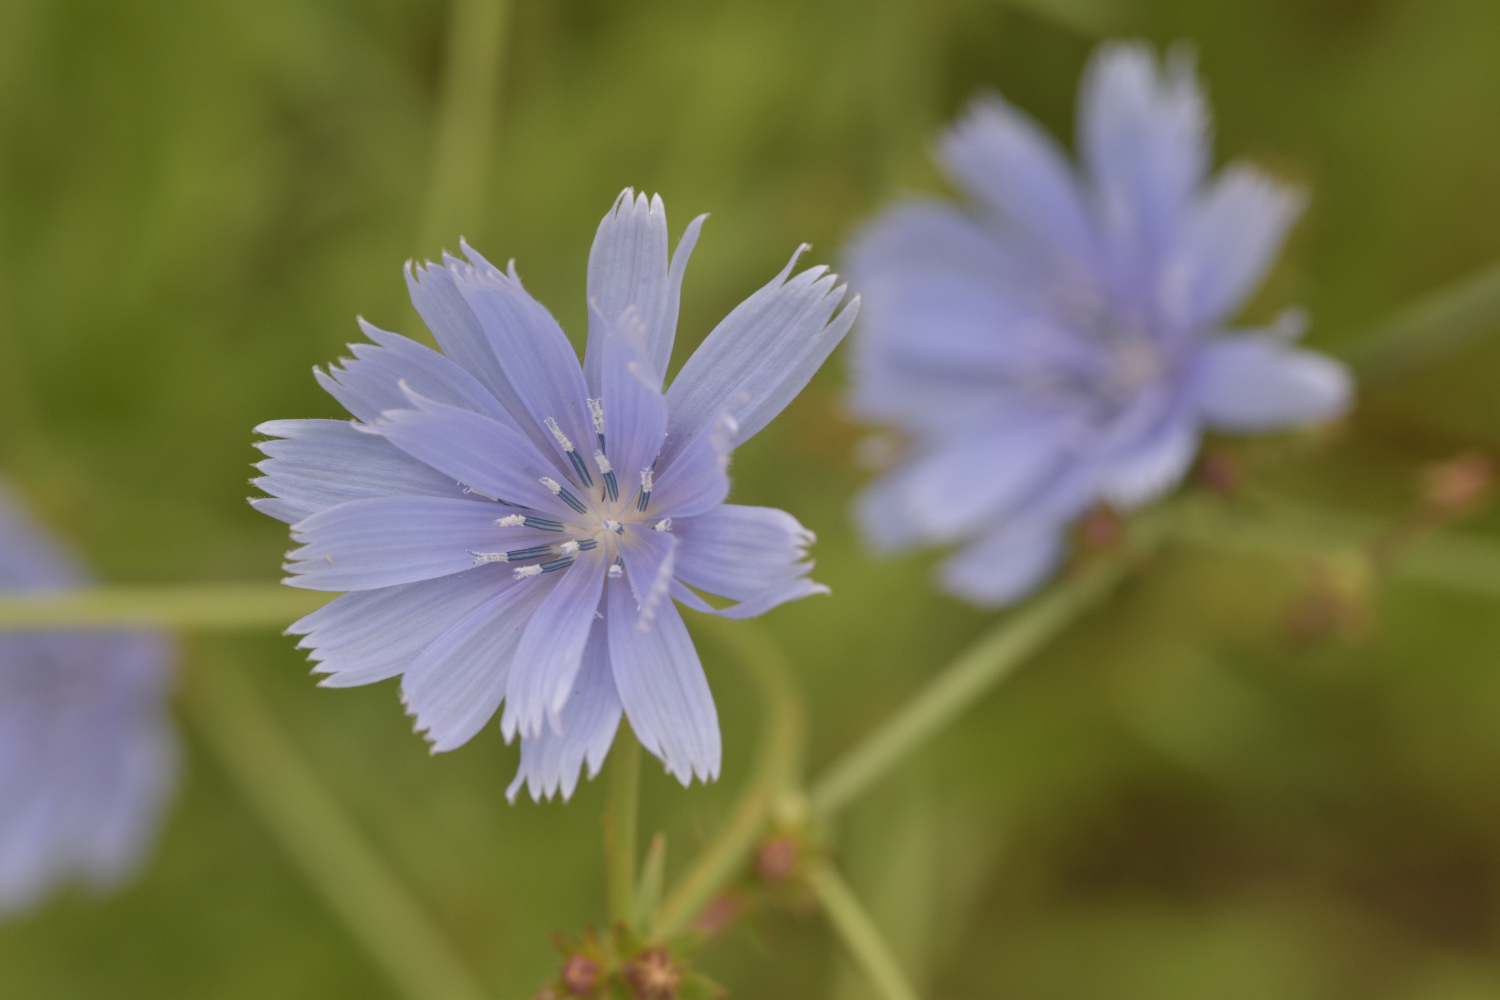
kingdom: Plantae
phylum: Tracheophyta
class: Magnoliopsida
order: Asterales
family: Asteraceae
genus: Cichorium
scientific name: Cichorium intybus
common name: Chicory
